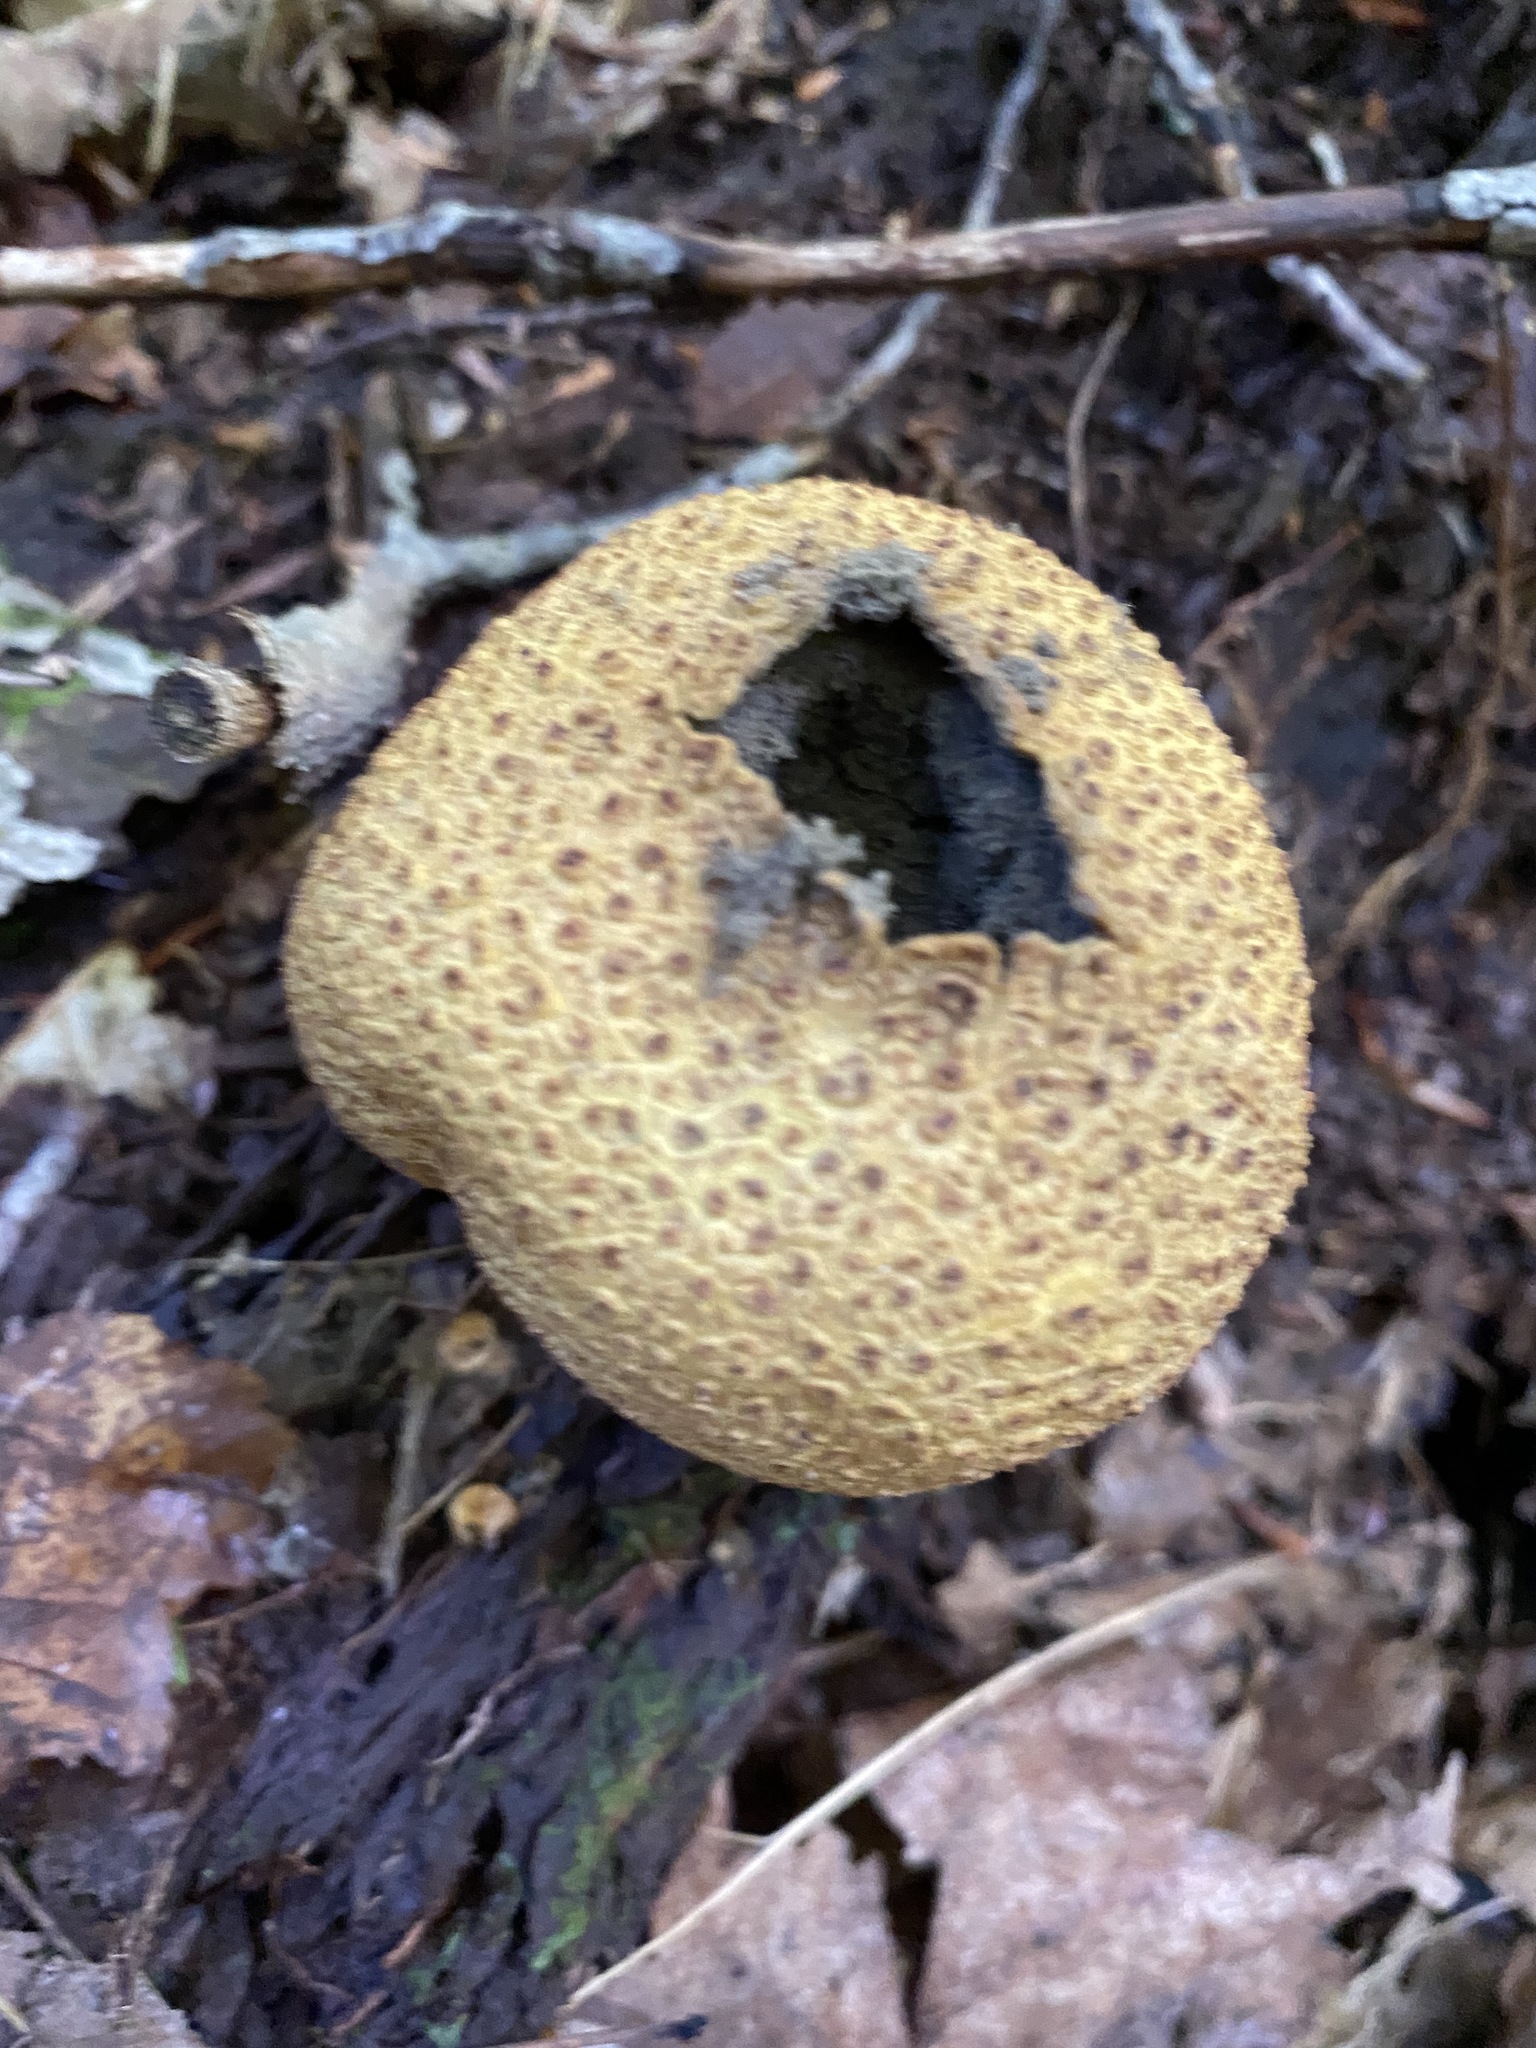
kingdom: Fungi
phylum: Basidiomycota
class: Agaricomycetes
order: Boletales
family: Sclerodermataceae
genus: Scleroderma
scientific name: Scleroderma citrinum
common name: Common earthball
